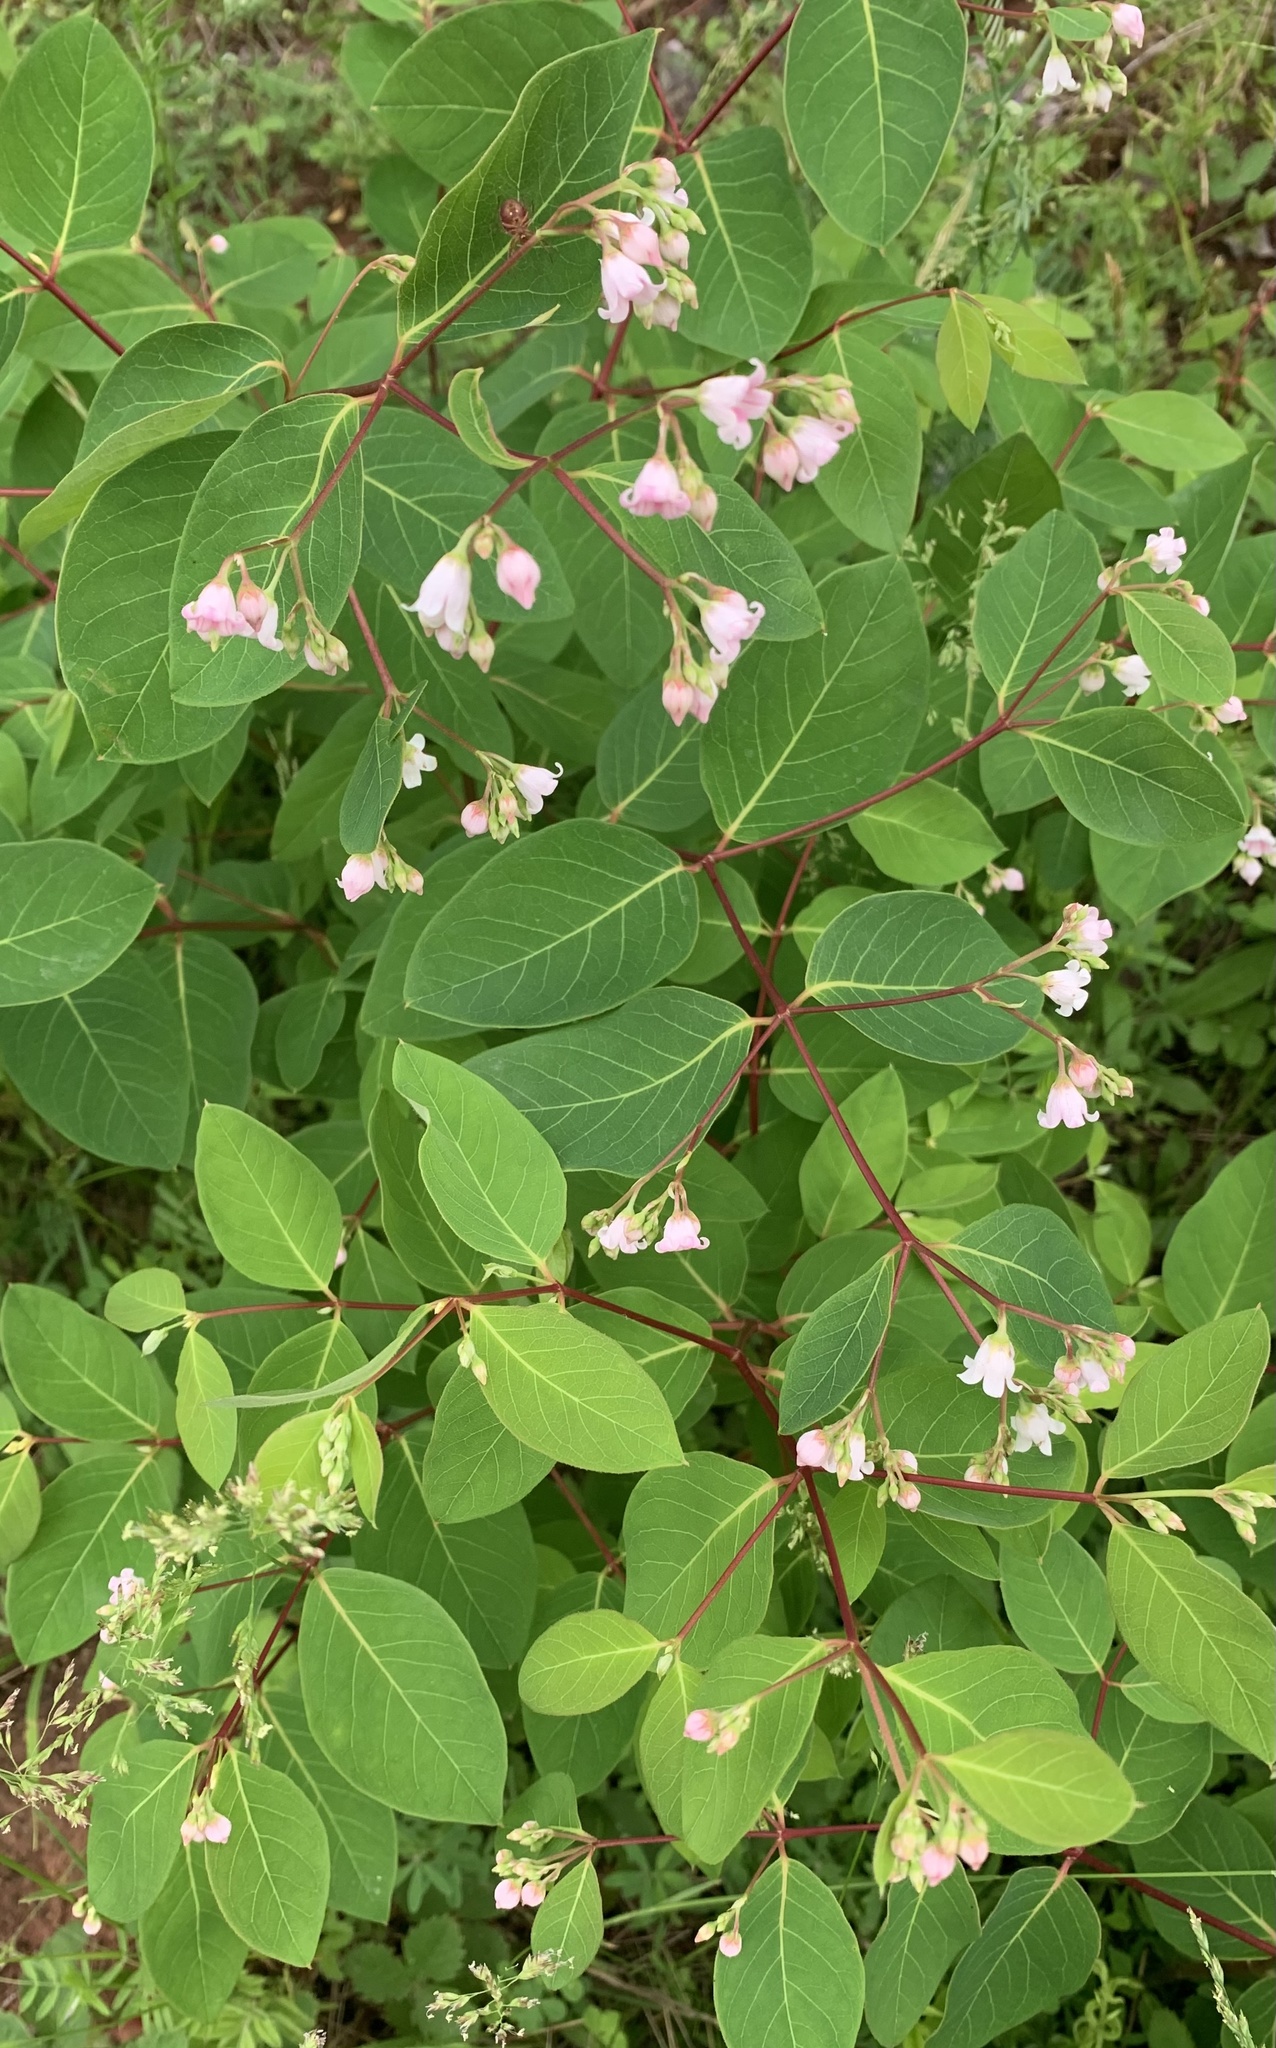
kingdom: Plantae
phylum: Tracheophyta
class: Magnoliopsida
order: Gentianales
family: Apocynaceae
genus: Apocynum
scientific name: Apocynum androsaemifolium
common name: Spreading dogbane
